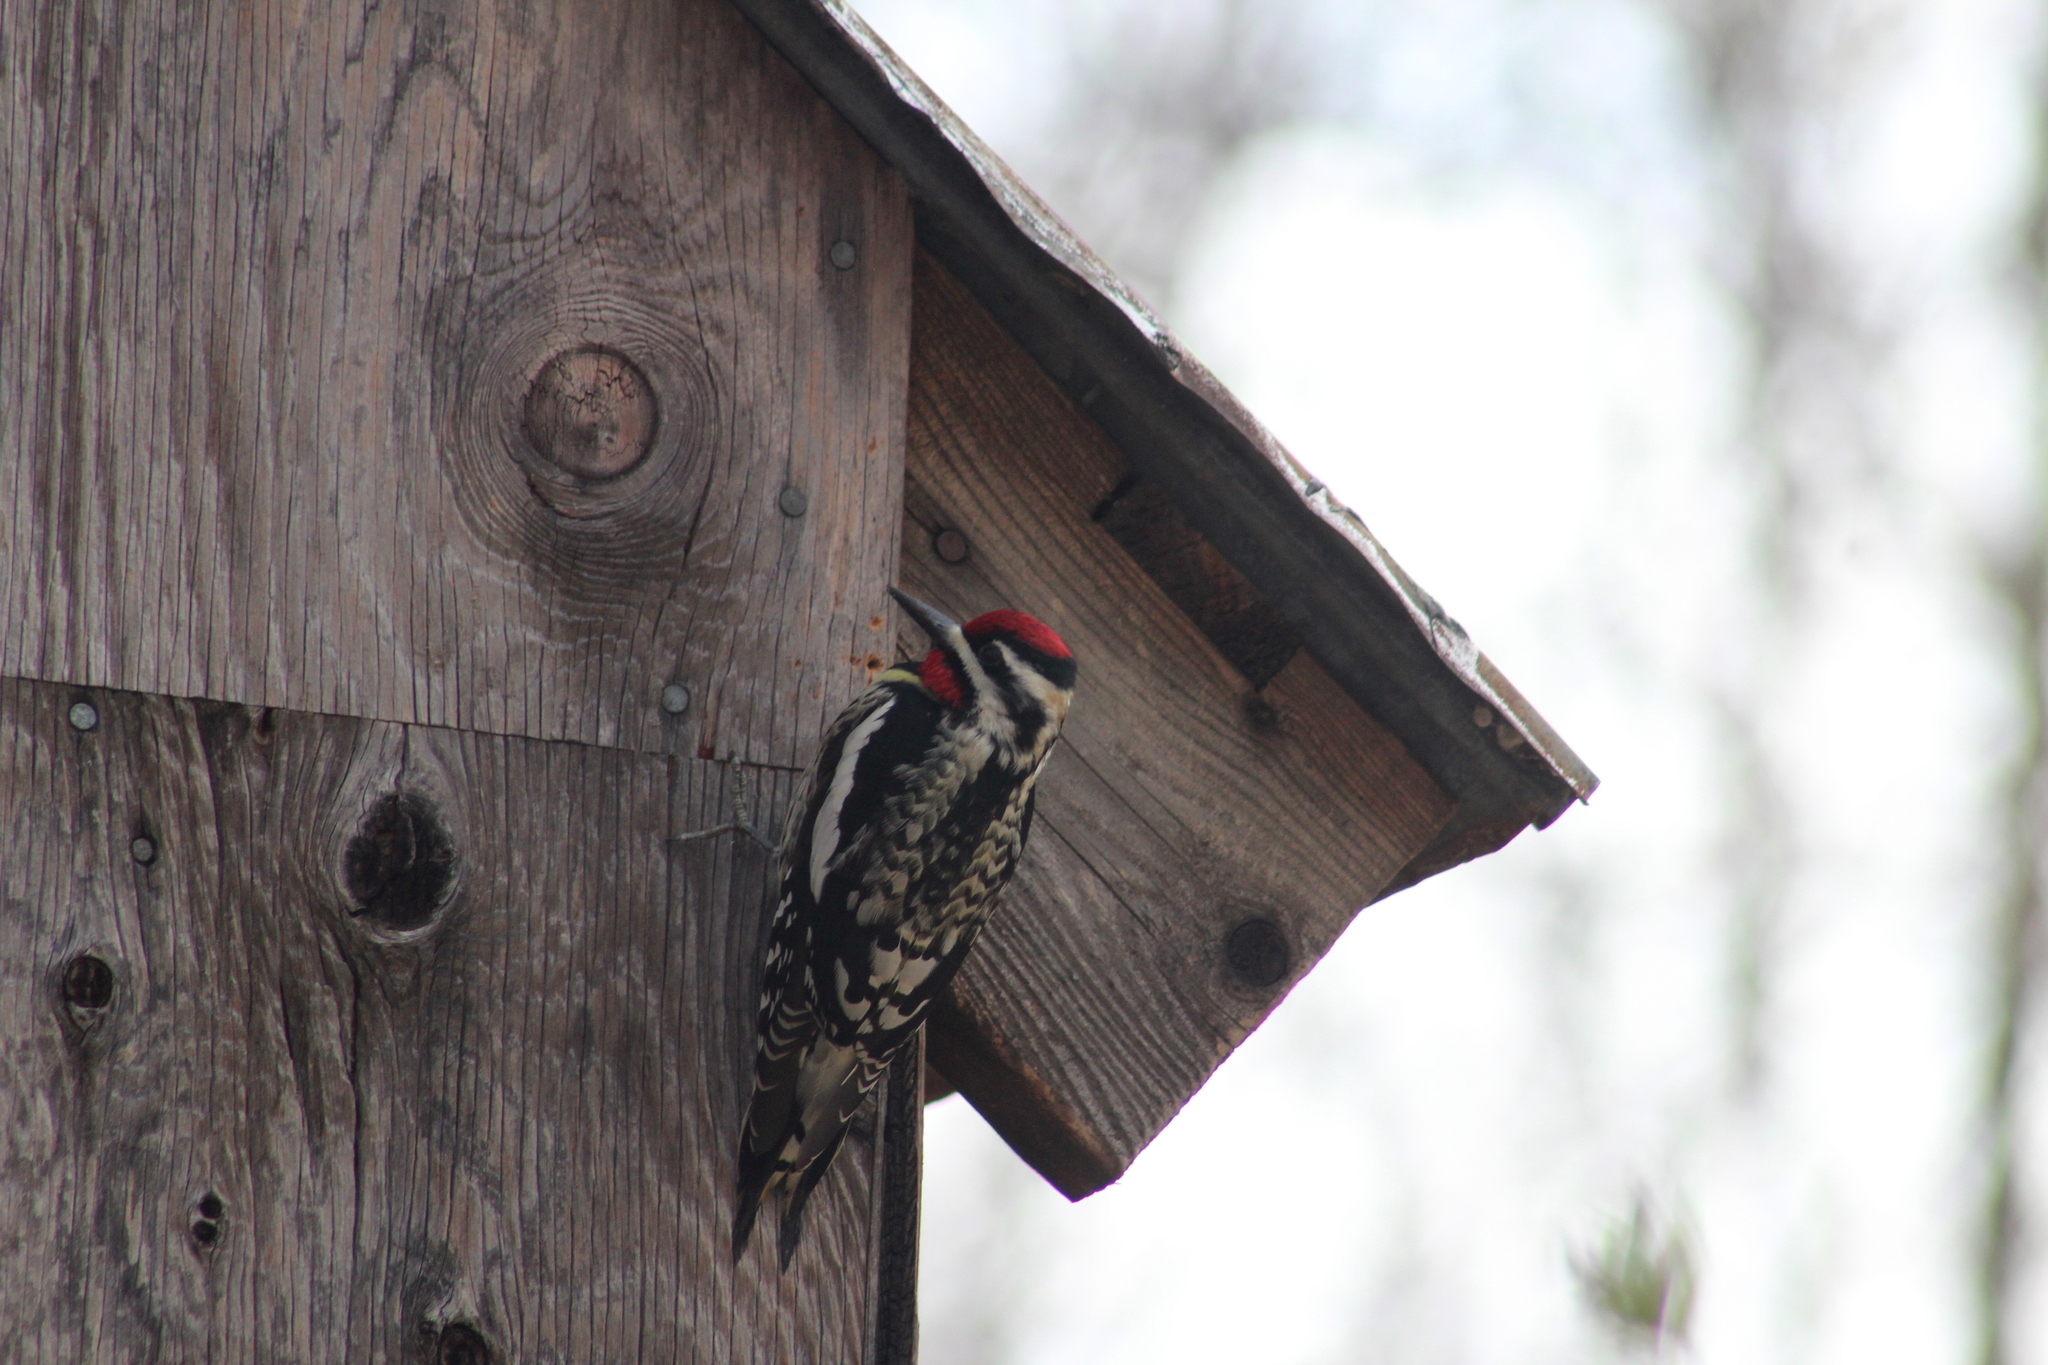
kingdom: Animalia
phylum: Chordata
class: Aves
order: Piciformes
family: Picidae
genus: Sphyrapicus
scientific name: Sphyrapicus varius
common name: Yellow-bellied sapsucker
